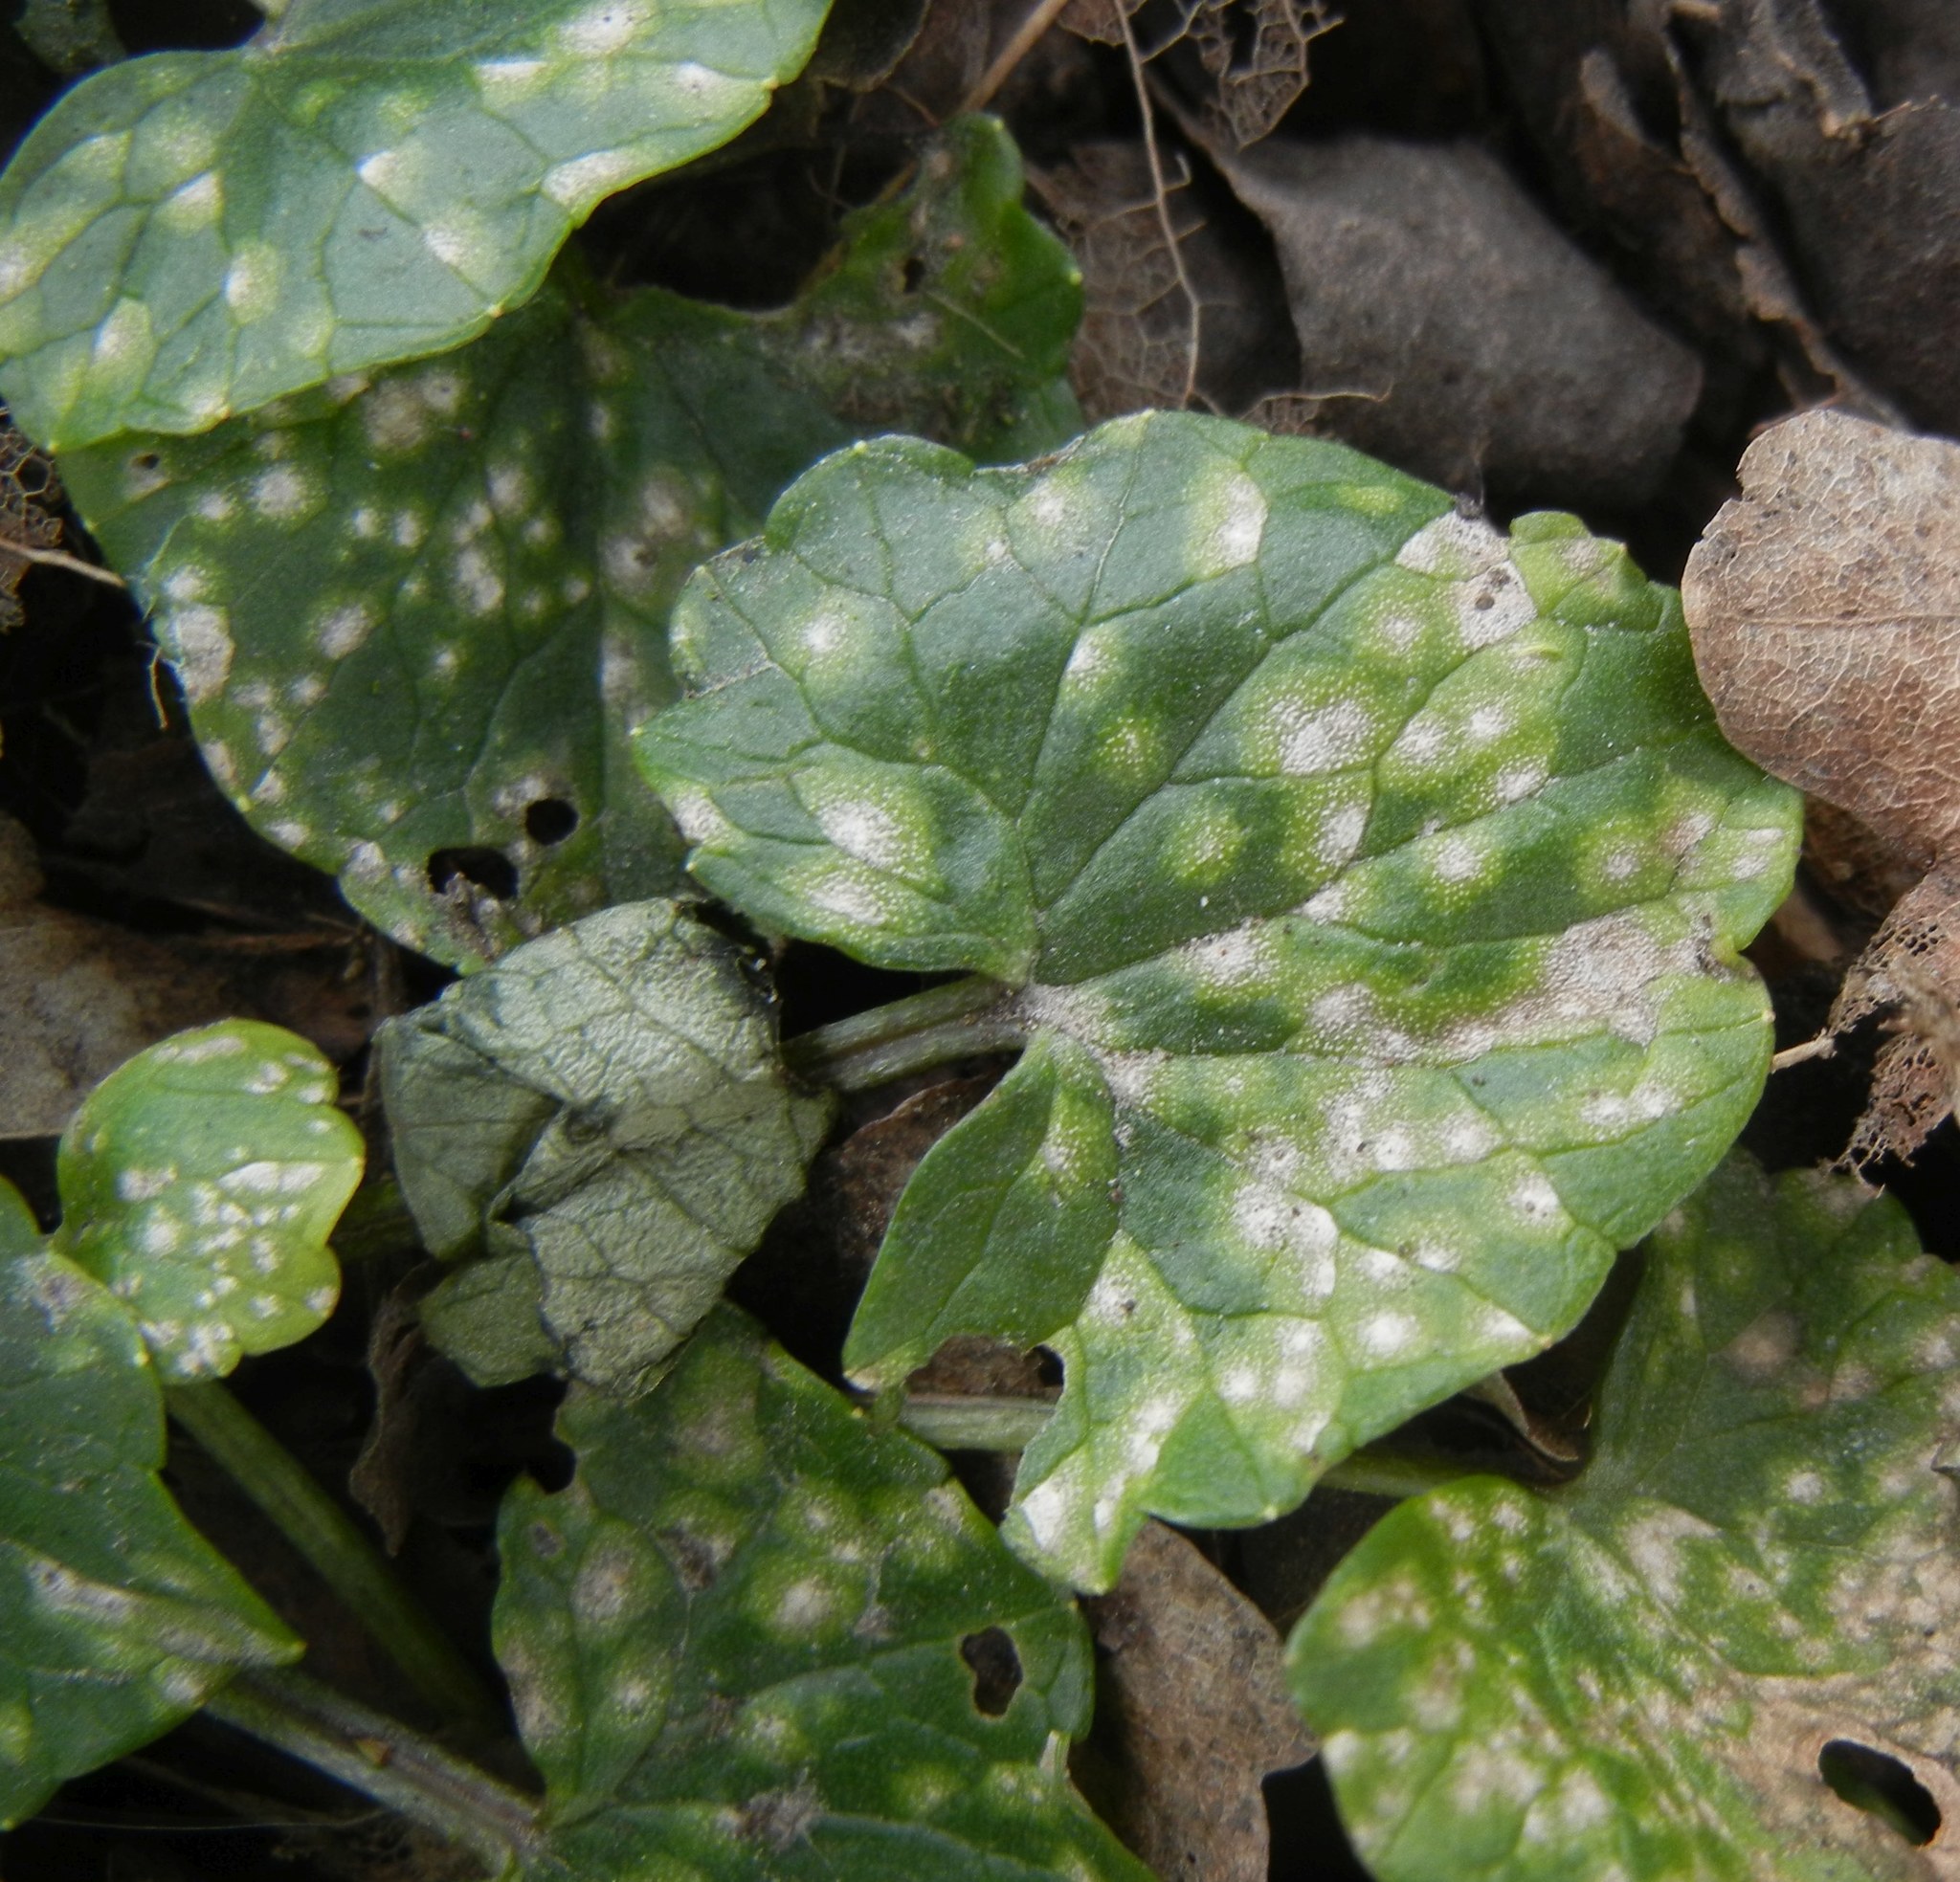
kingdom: Fungi
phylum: Basidiomycota
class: Exobasidiomycetes
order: Entylomatales
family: Entylomataceae
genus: Entyloma
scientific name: Entyloma ficariae
